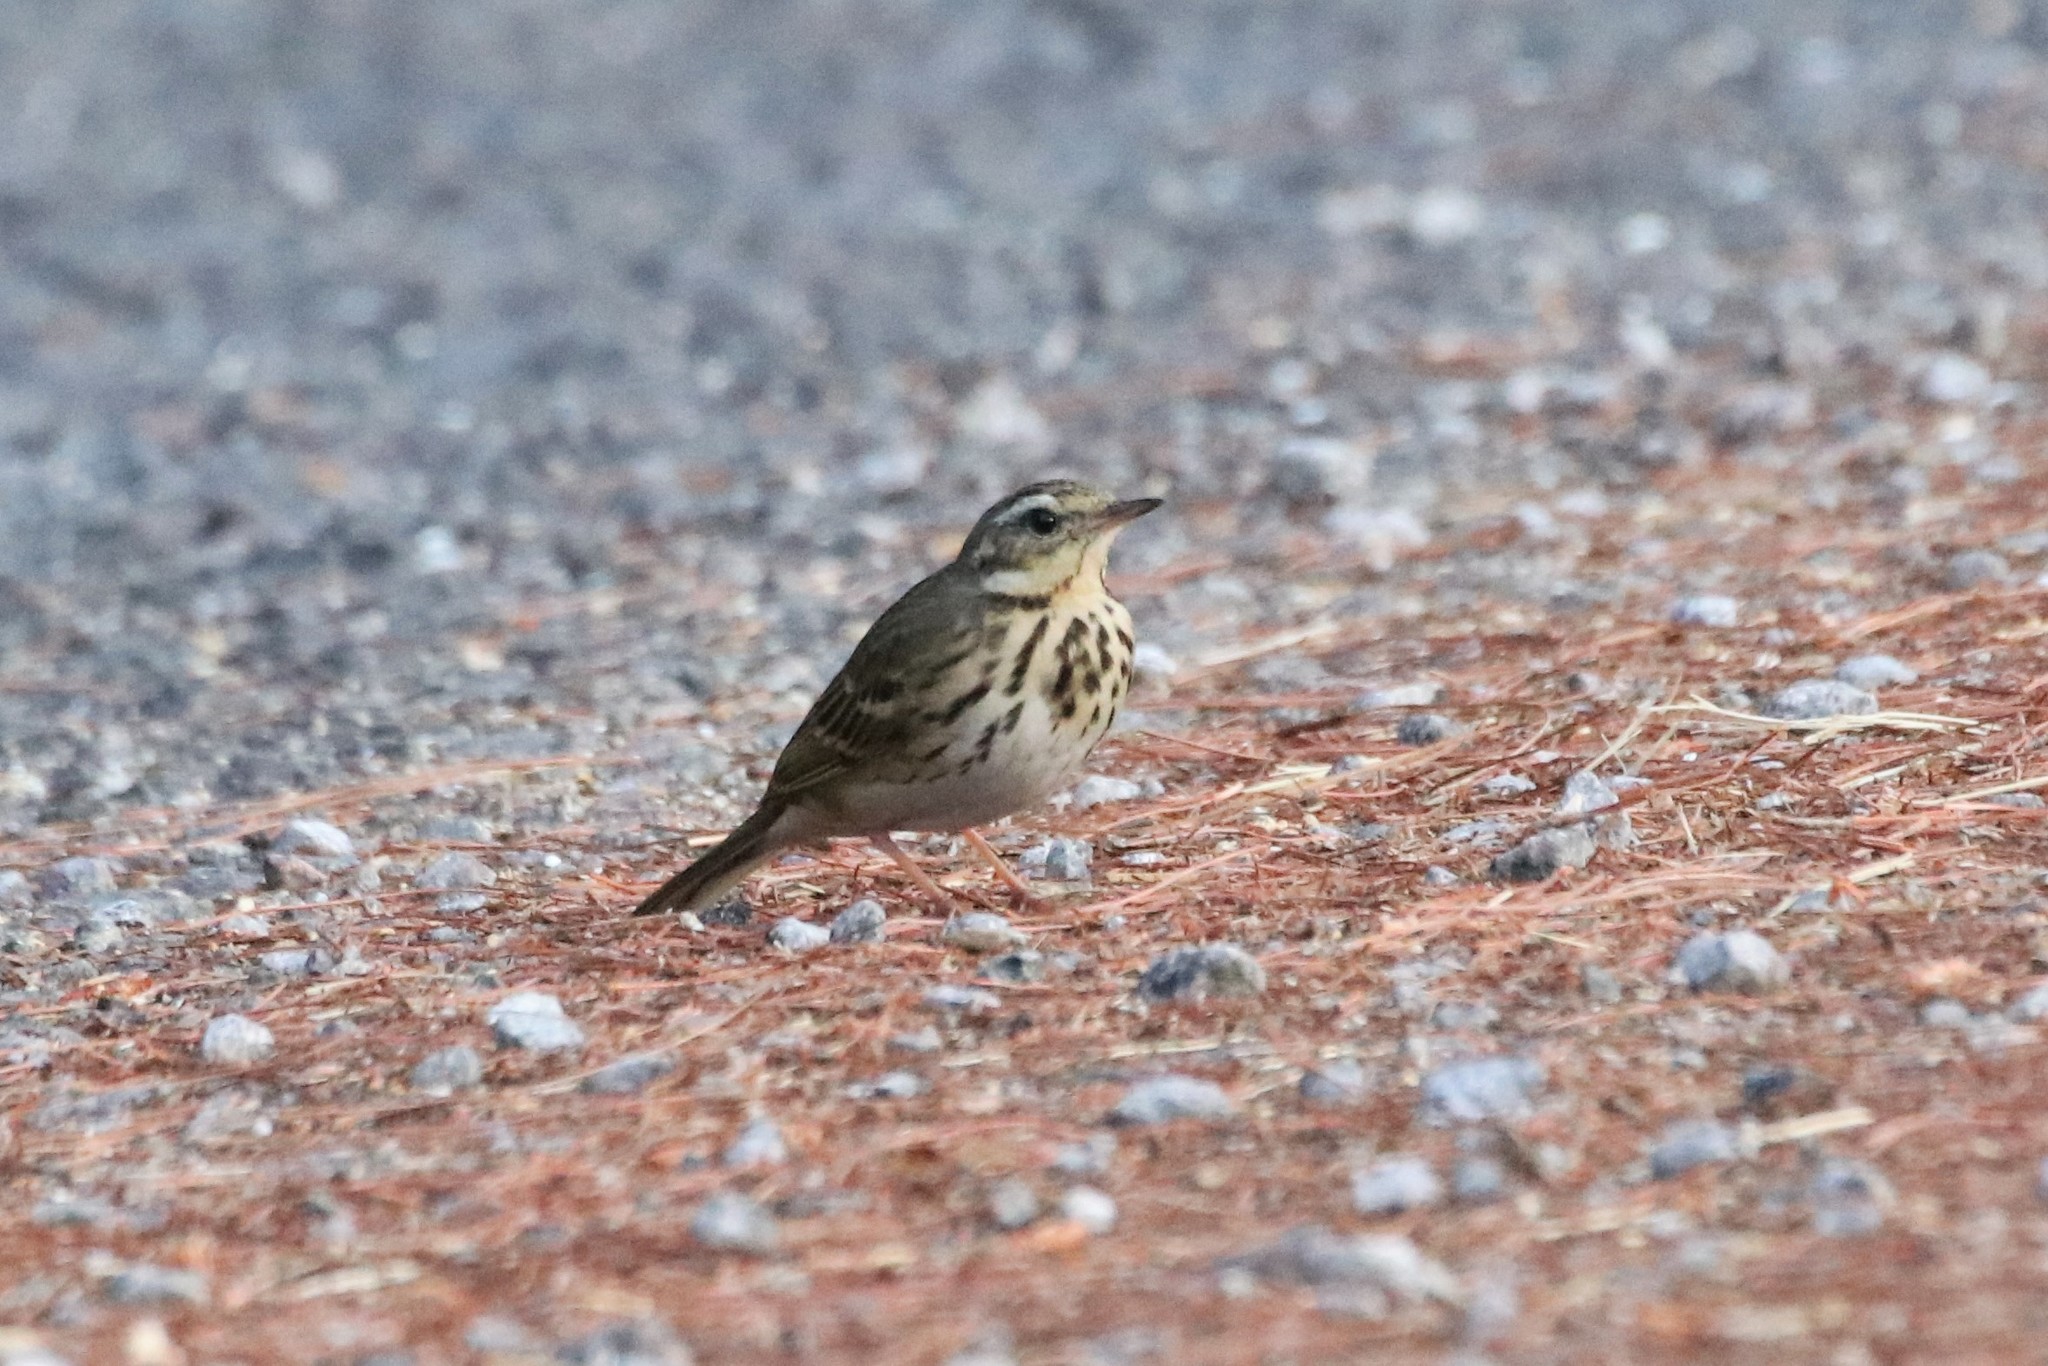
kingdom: Animalia
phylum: Chordata
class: Aves
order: Passeriformes
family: Motacillidae
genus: Anthus
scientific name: Anthus hodgsoni
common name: Olive-backed pipit
